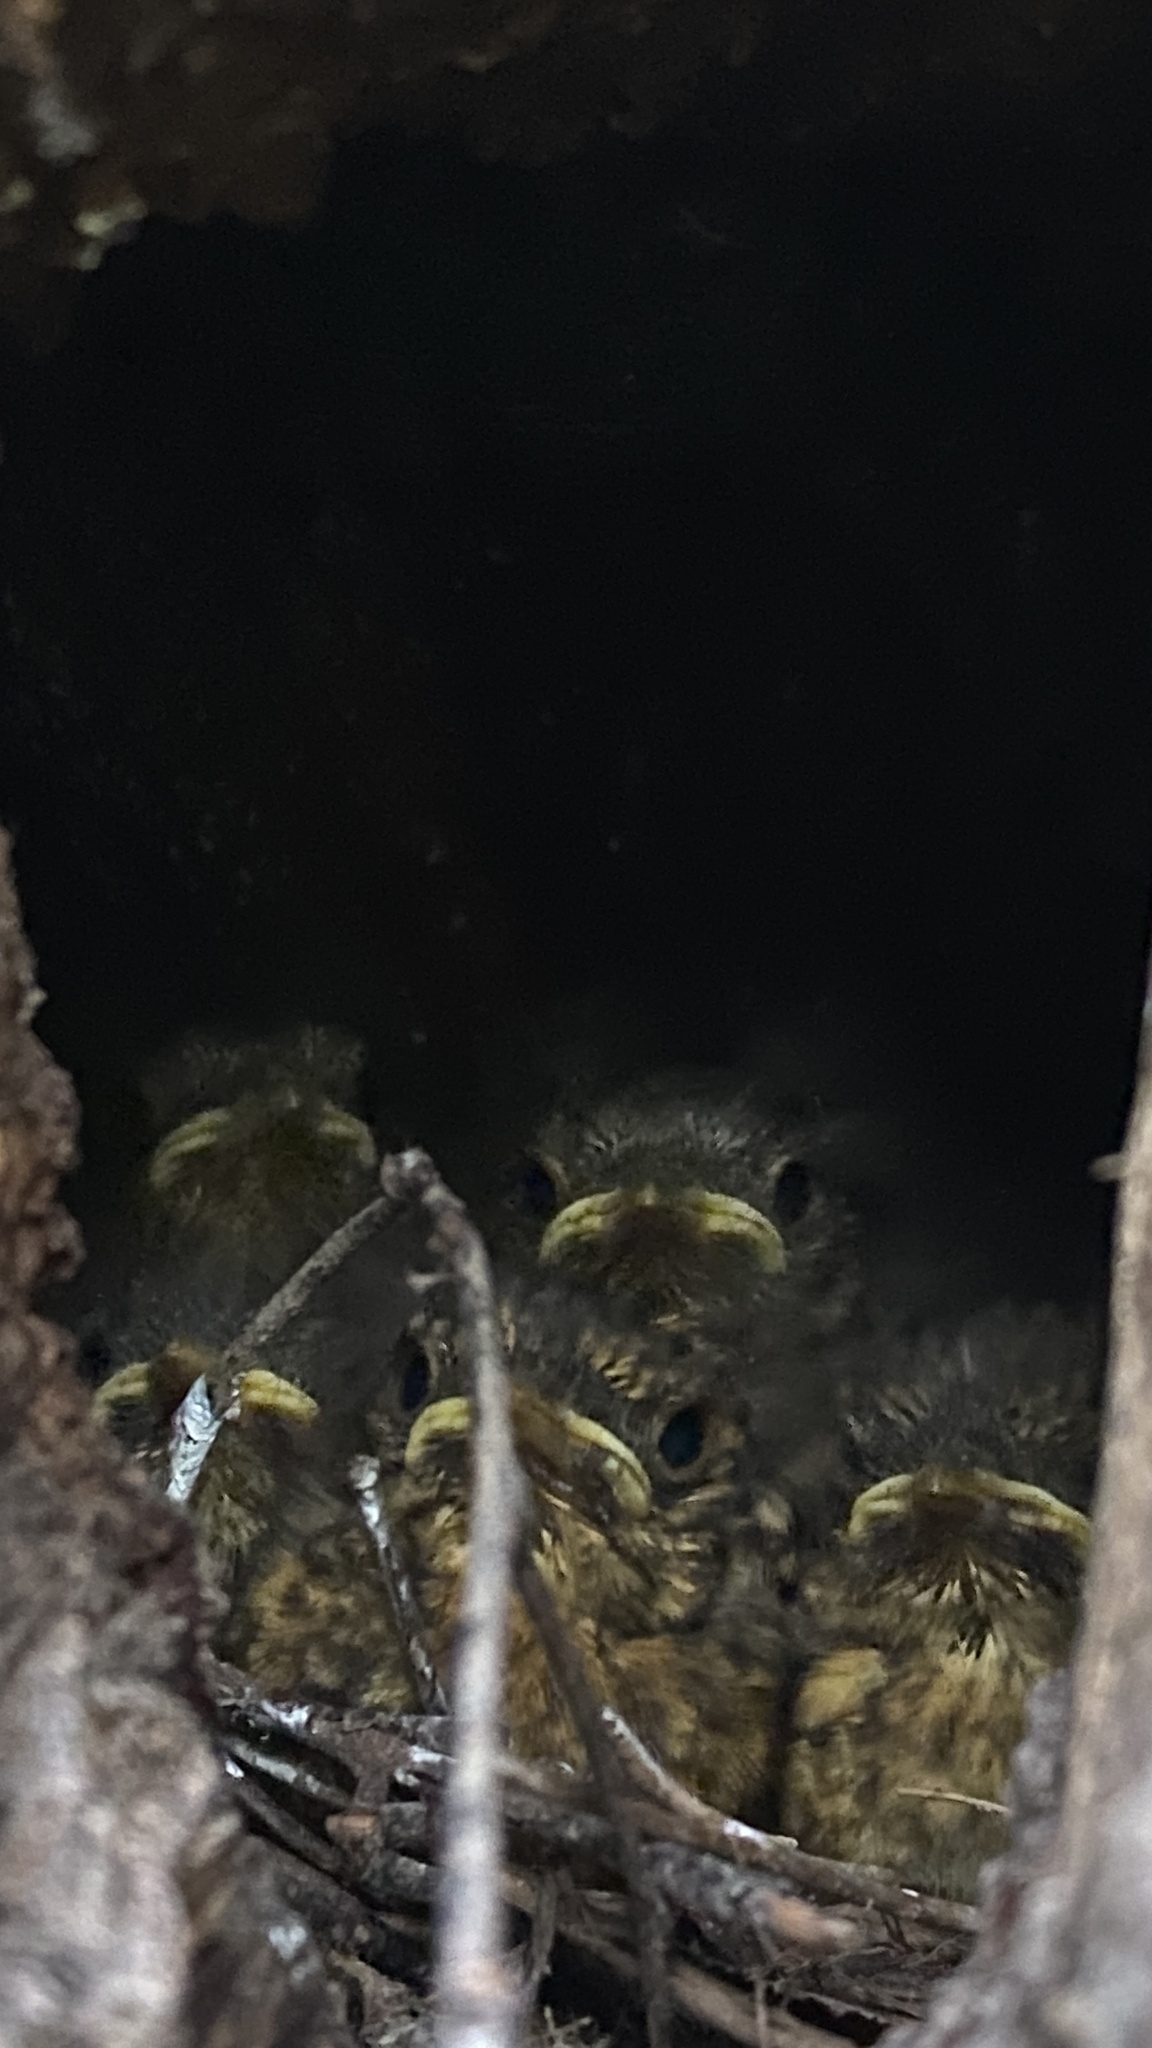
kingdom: Animalia
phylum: Chordata
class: Aves
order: Passeriformes
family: Muscicapidae
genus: Erithacus
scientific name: Erithacus rubecula
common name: European robin
